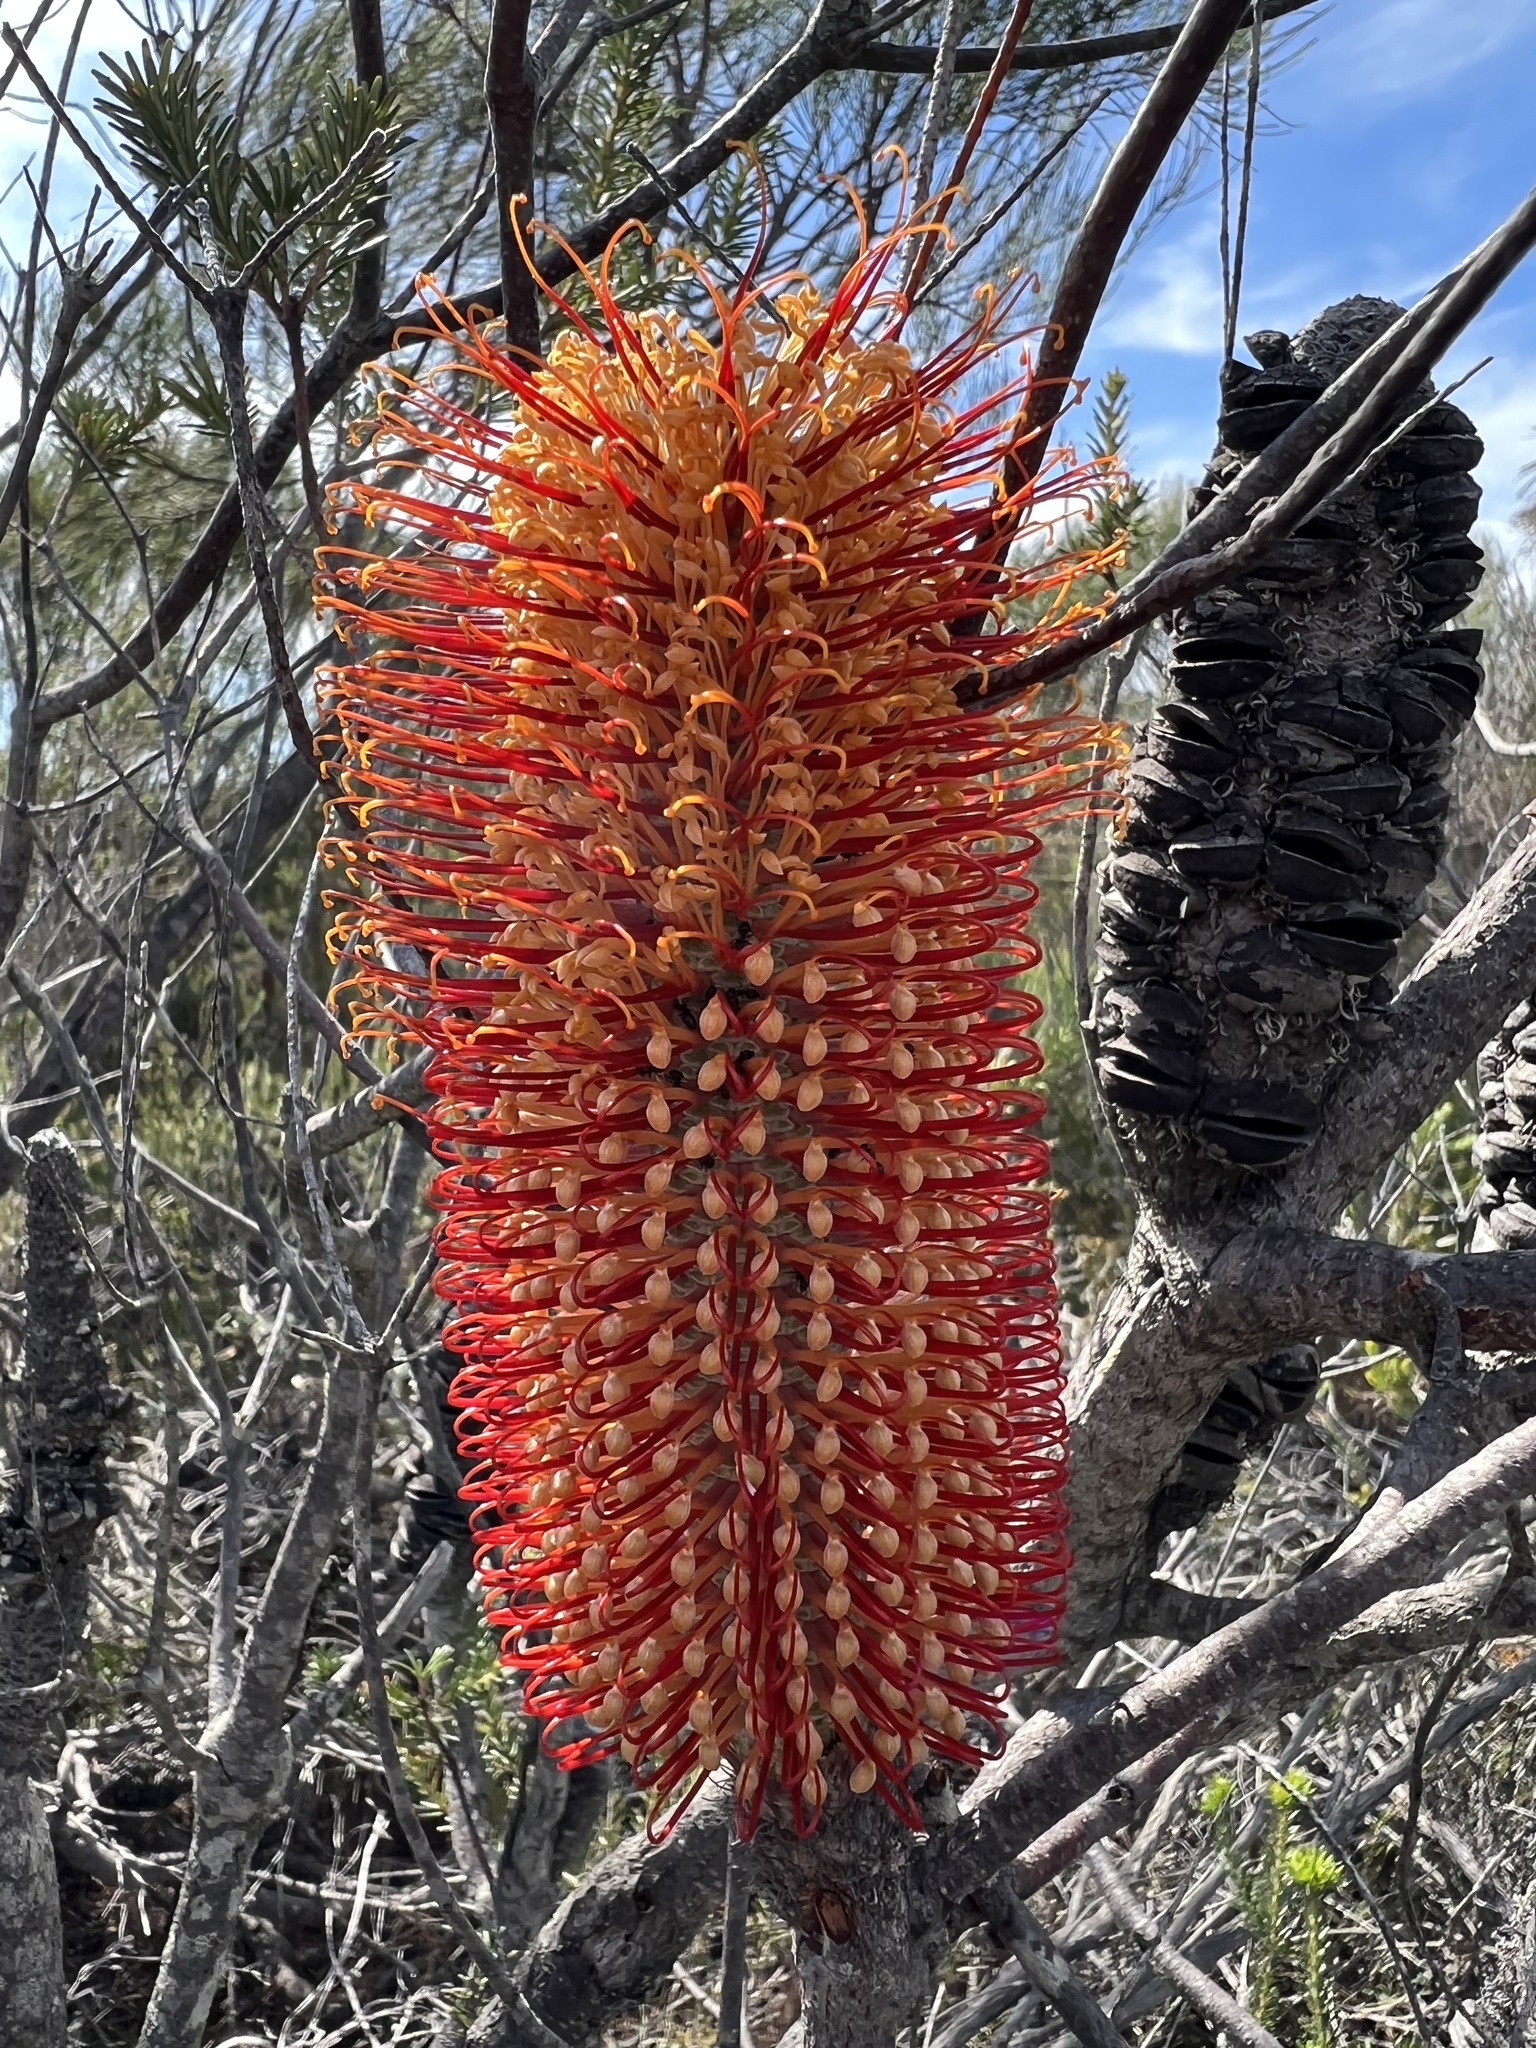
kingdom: Plantae
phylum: Tracheophyta
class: Magnoliopsida
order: Proteales
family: Proteaceae
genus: Banksia
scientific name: Banksia ericifolia
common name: Heath-leaf banksia
